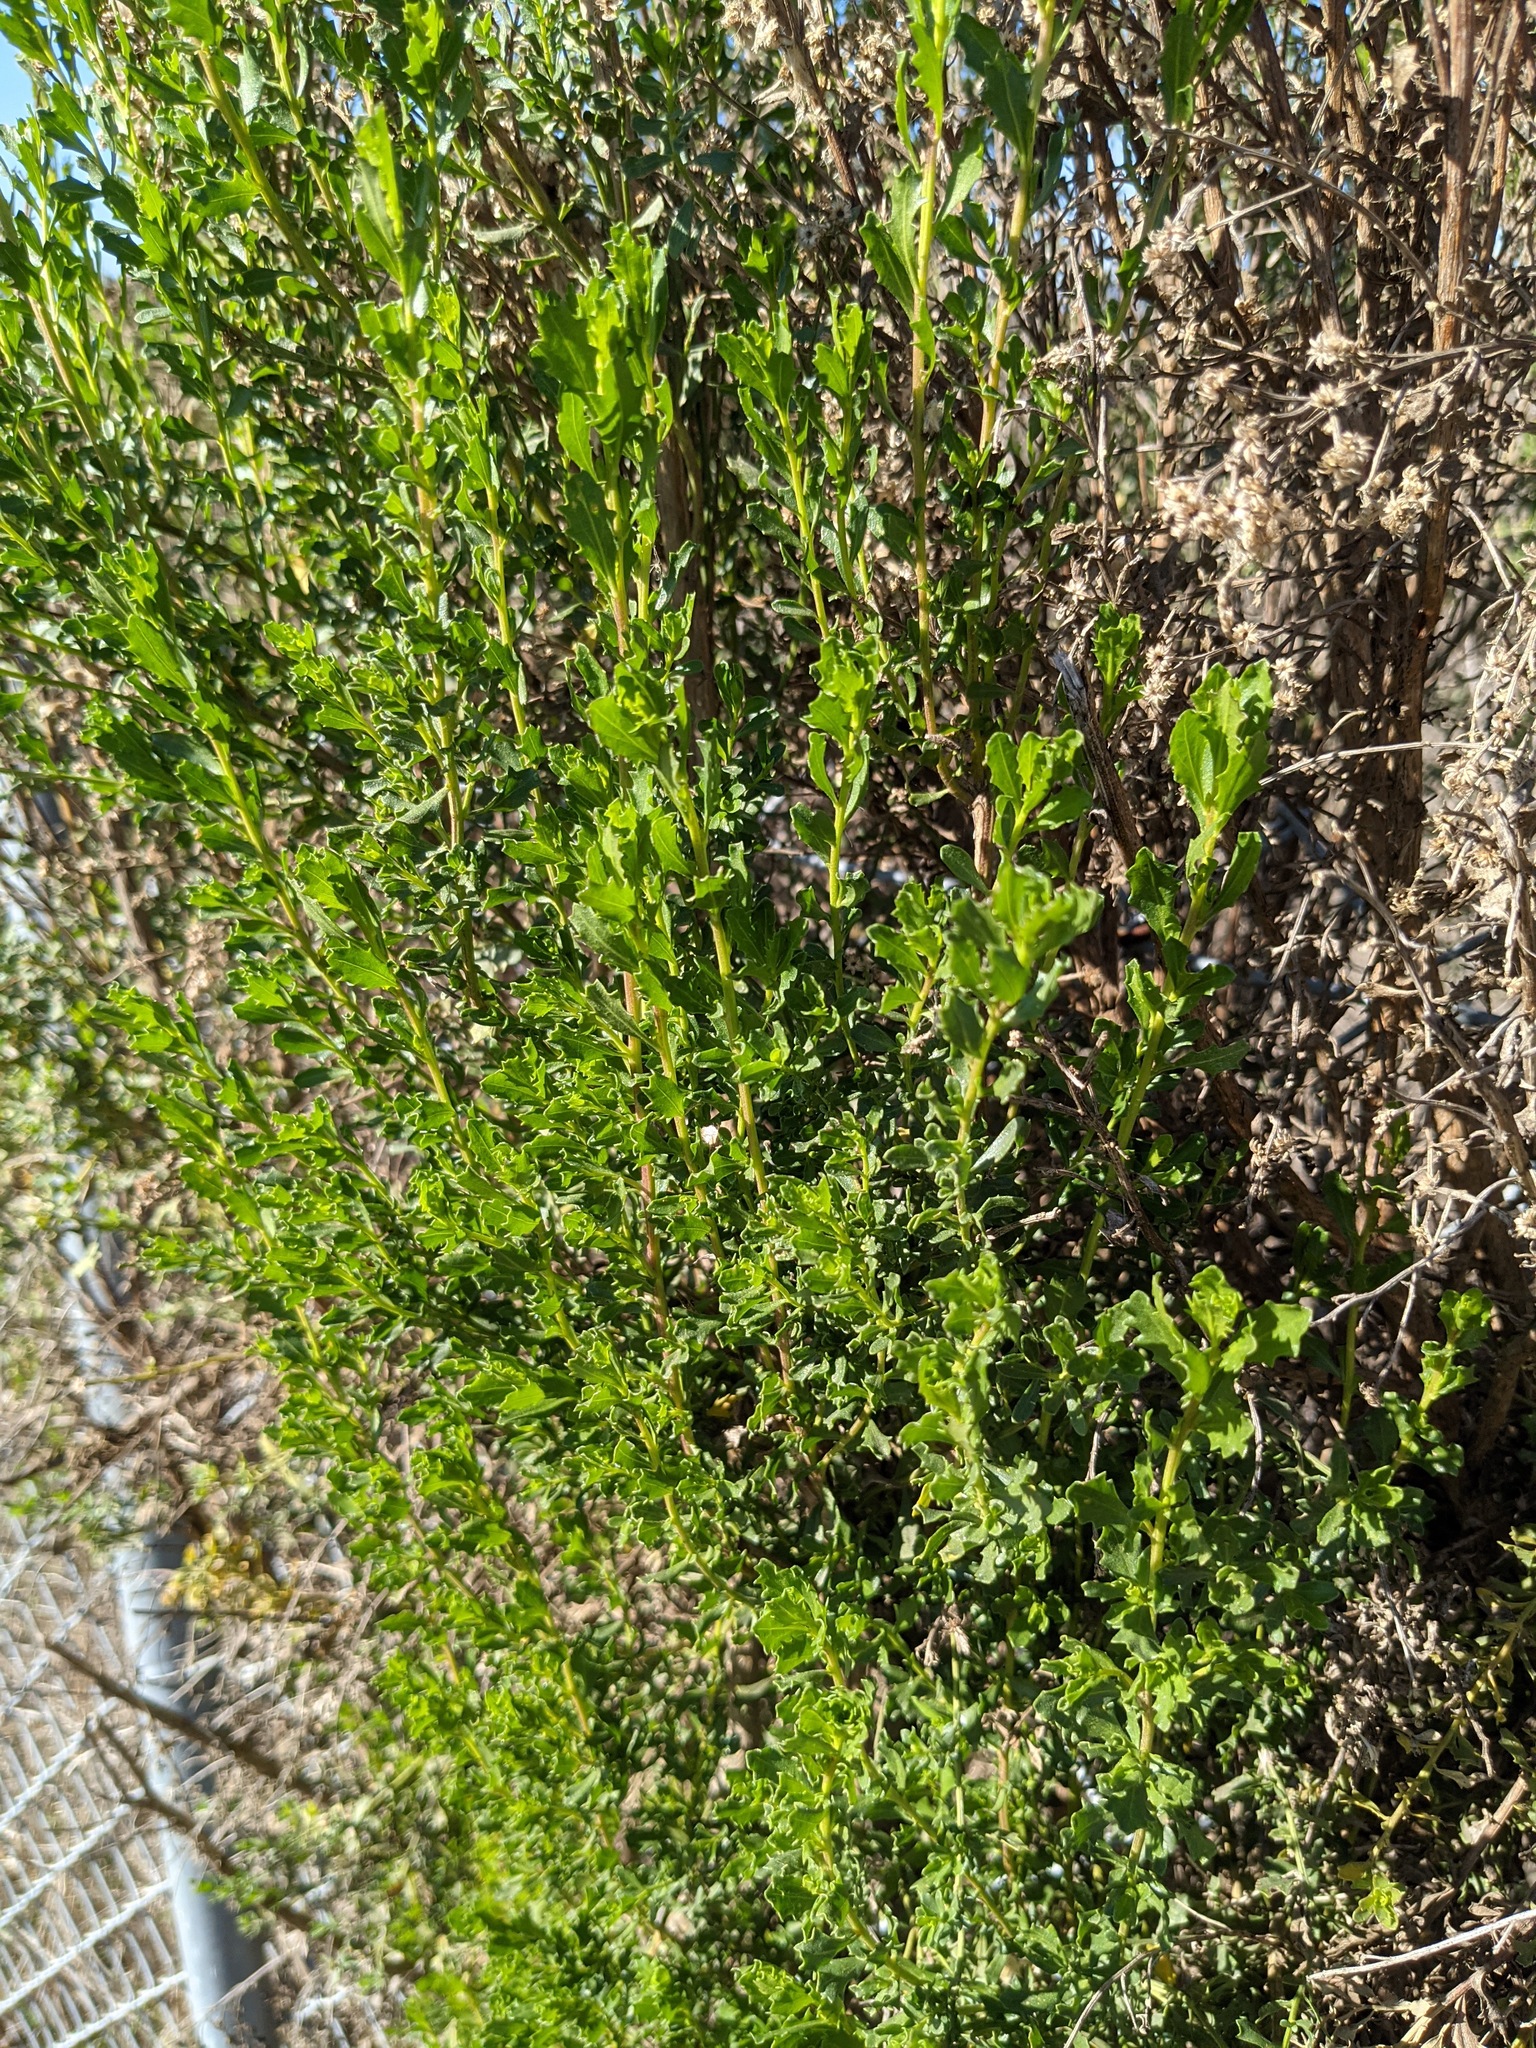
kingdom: Plantae
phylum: Tracheophyta
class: Magnoliopsida
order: Asterales
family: Asteraceae
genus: Baccharis
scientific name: Baccharis pilularis
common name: Coyotebrush
